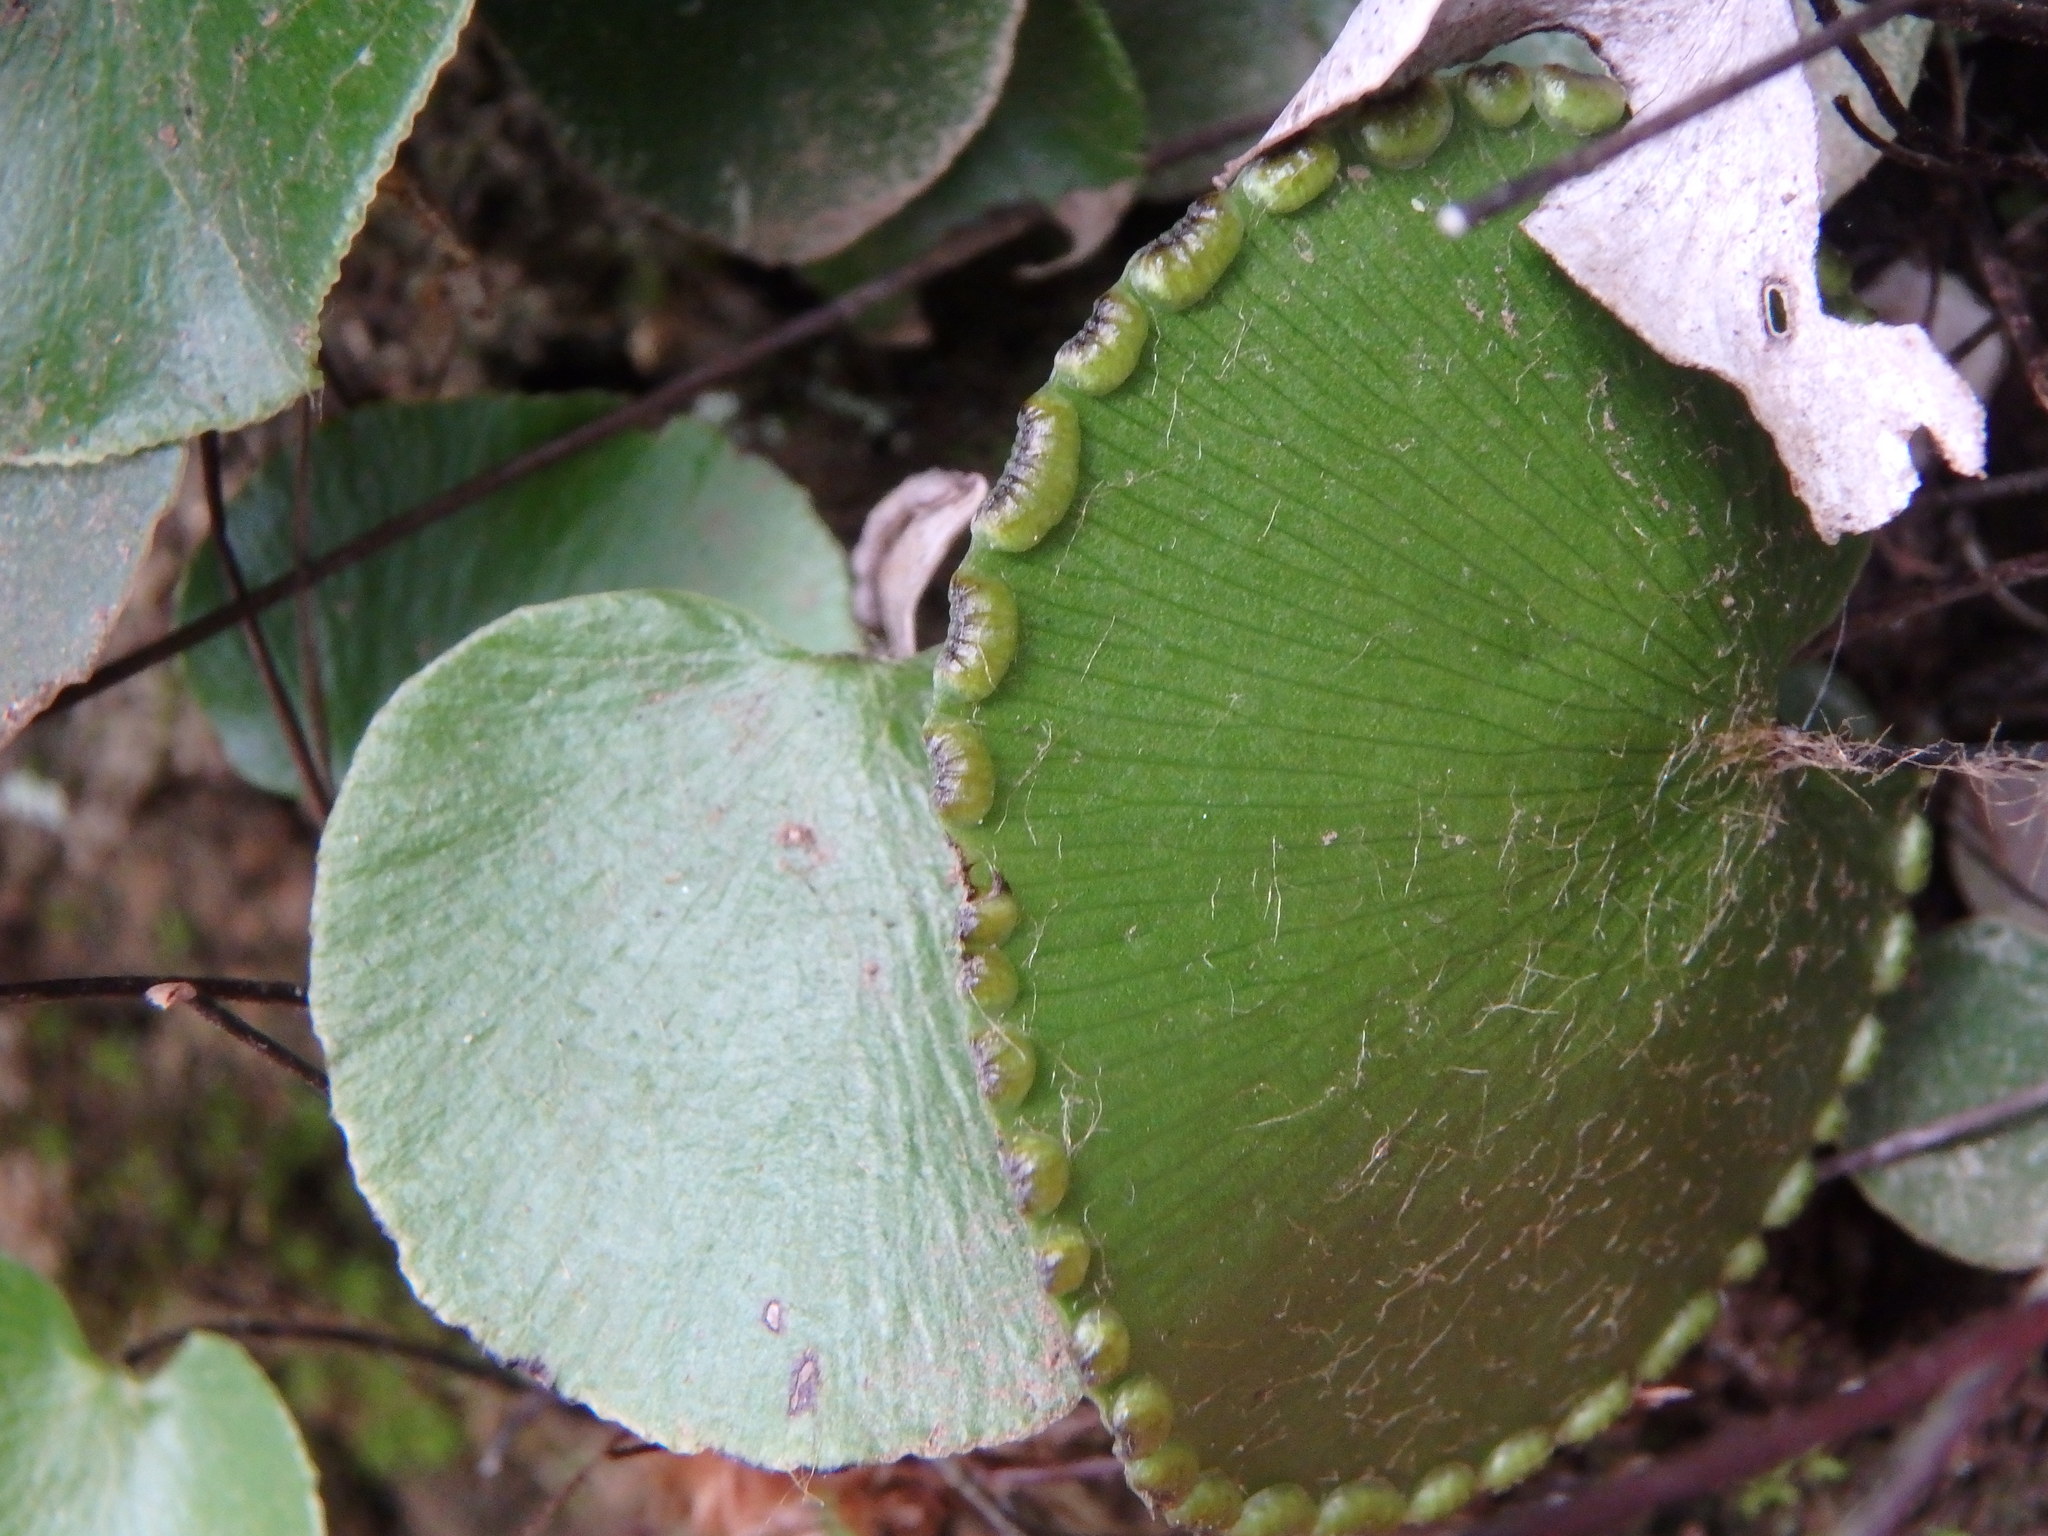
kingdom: Plantae
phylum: Tracheophyta
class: Polypodiopsida
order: Polypodiales
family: Pteridaceae
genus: Adiantum
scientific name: Adiantum reniforme
